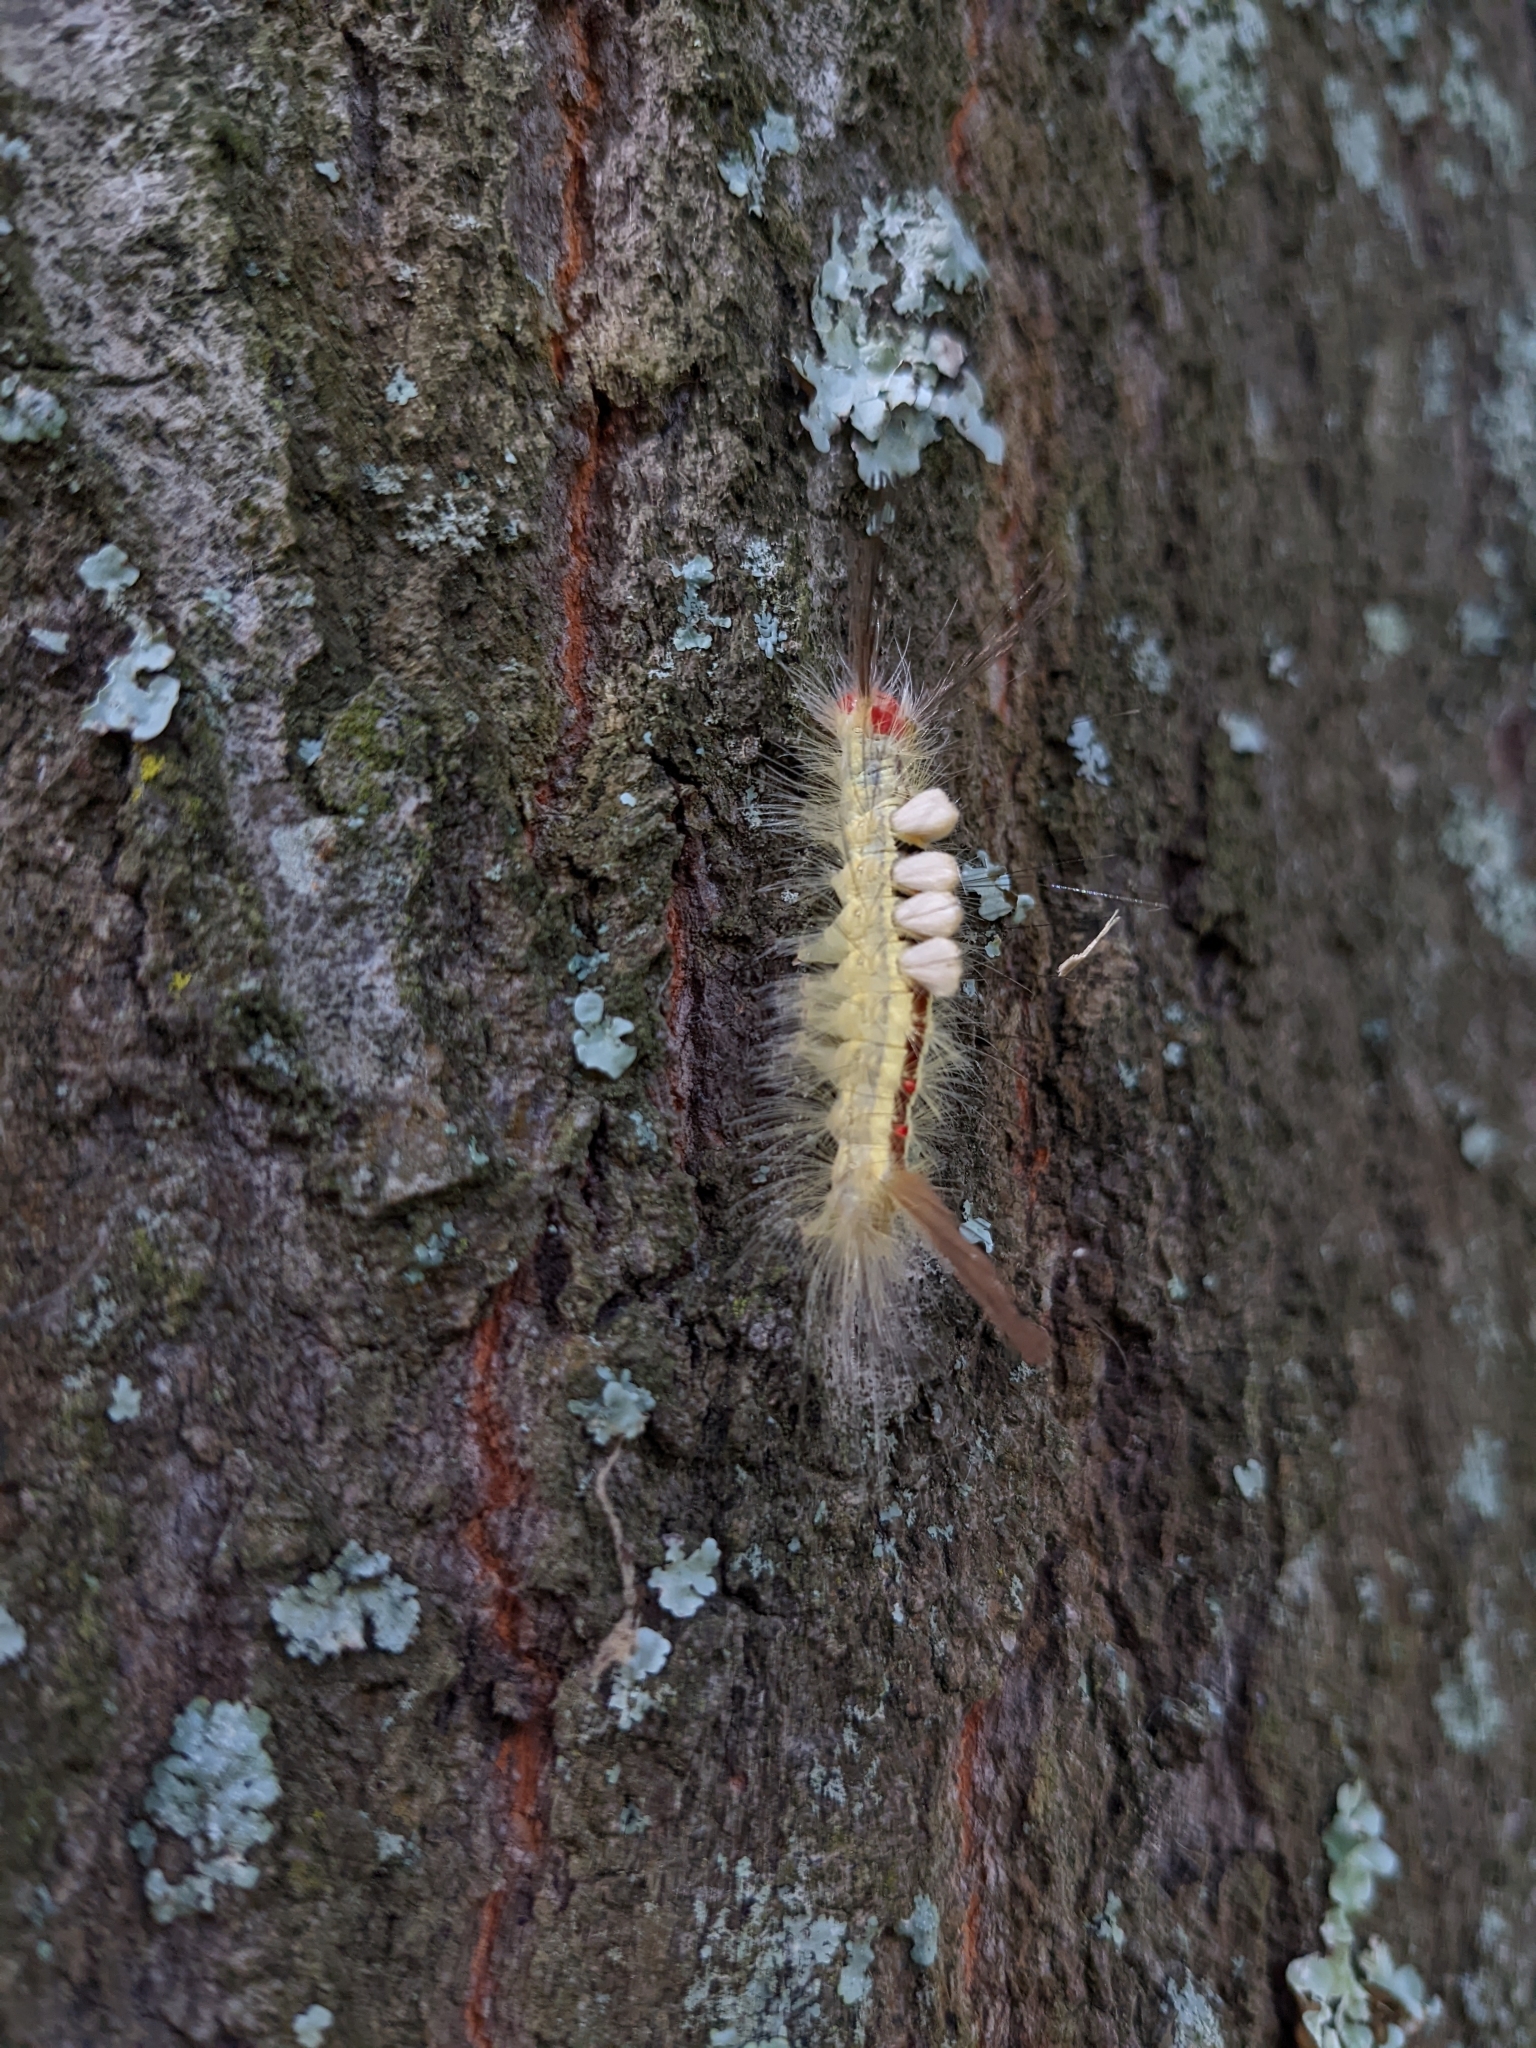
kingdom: Animalia
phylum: Arthropoda
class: Insecta
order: Lepidoptera
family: Erebidae
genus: Orgyia
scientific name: Orgyia leucostigma
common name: White-marked tussock moth
